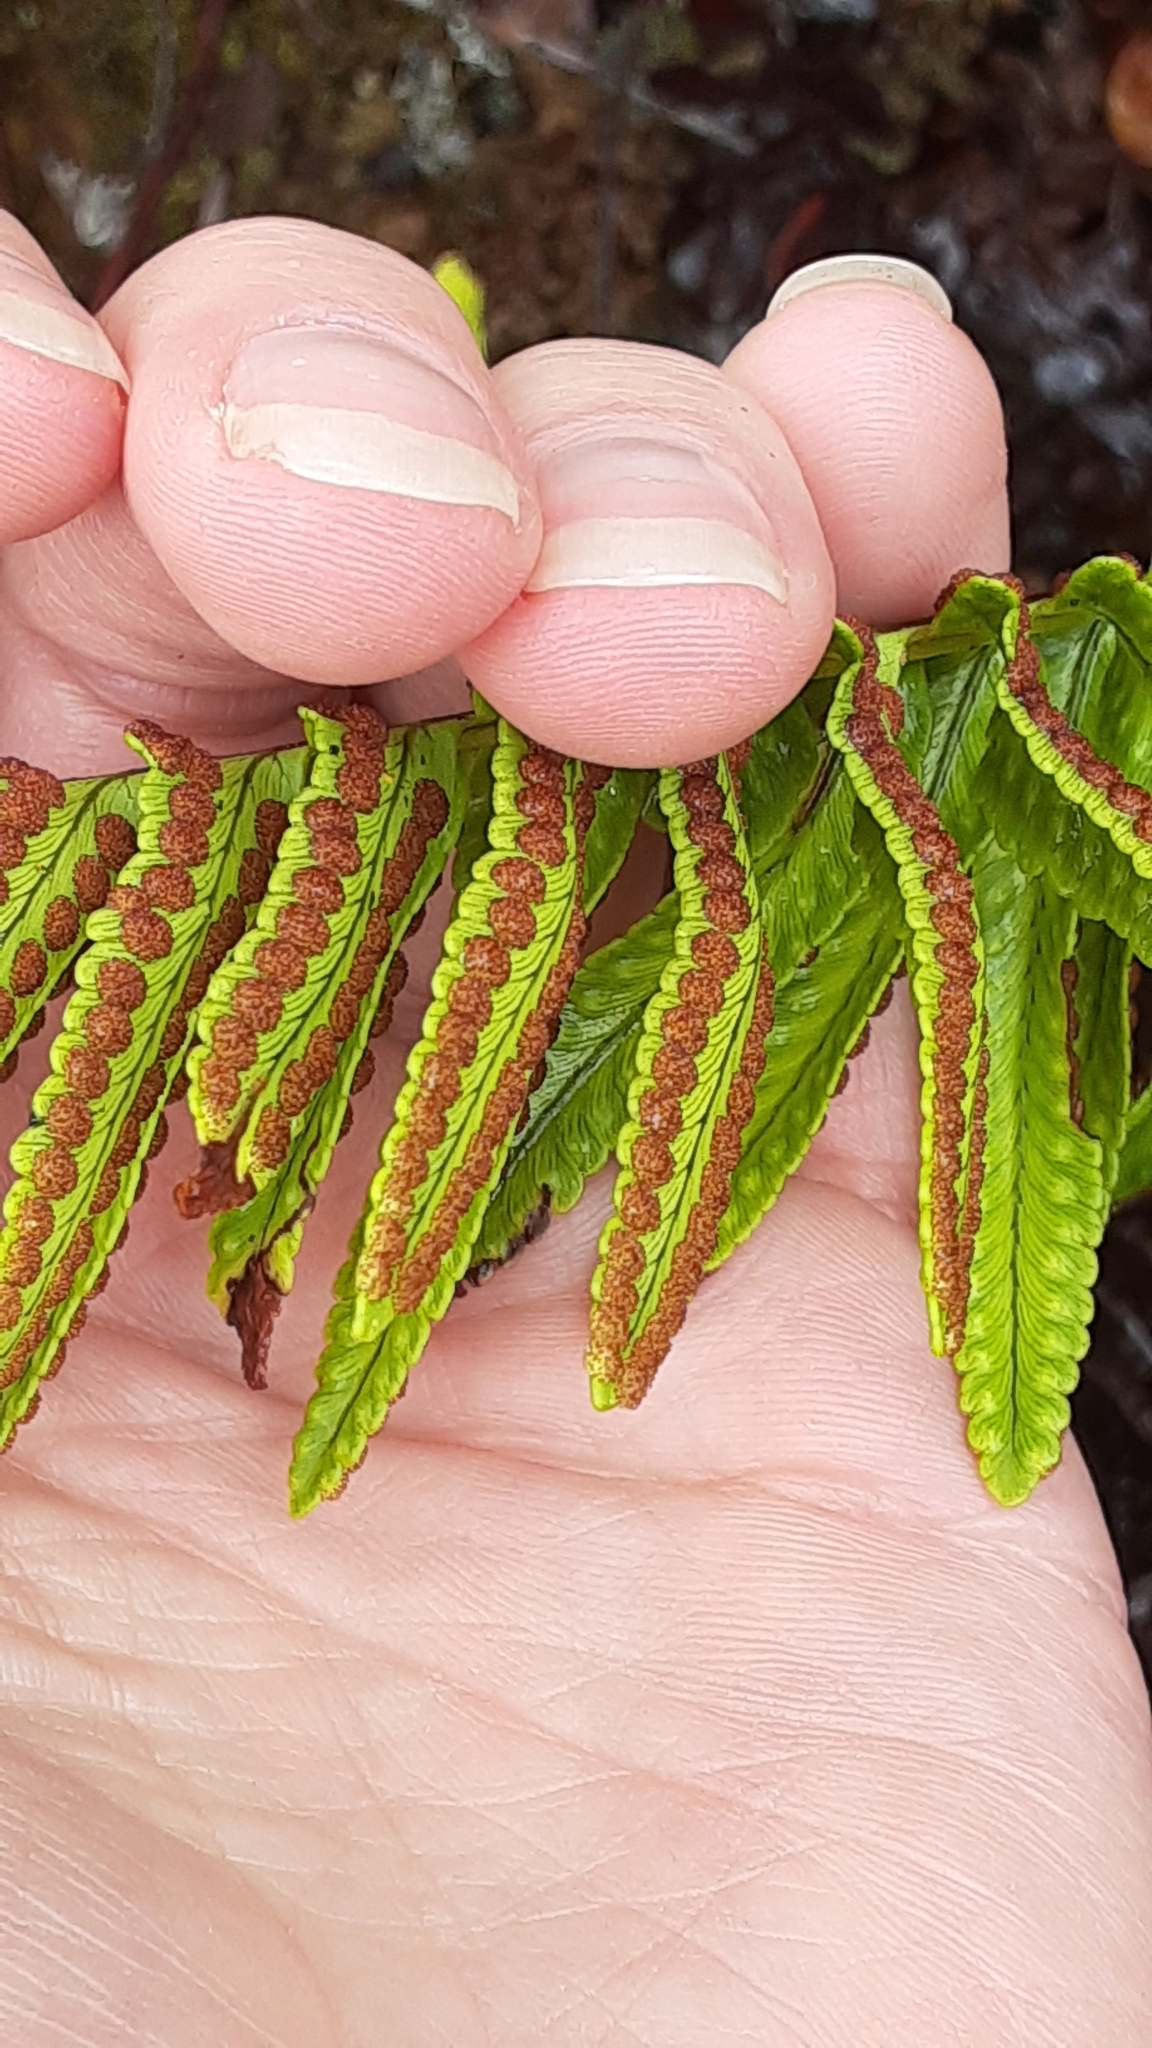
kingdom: Plantae
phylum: Tracheophyta
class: Polypodiopsida
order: Polypodiales
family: Nephrolepidaceae
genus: Nephrolepis
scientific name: Nephrolepis cordifolia
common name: Narrow swordfern
